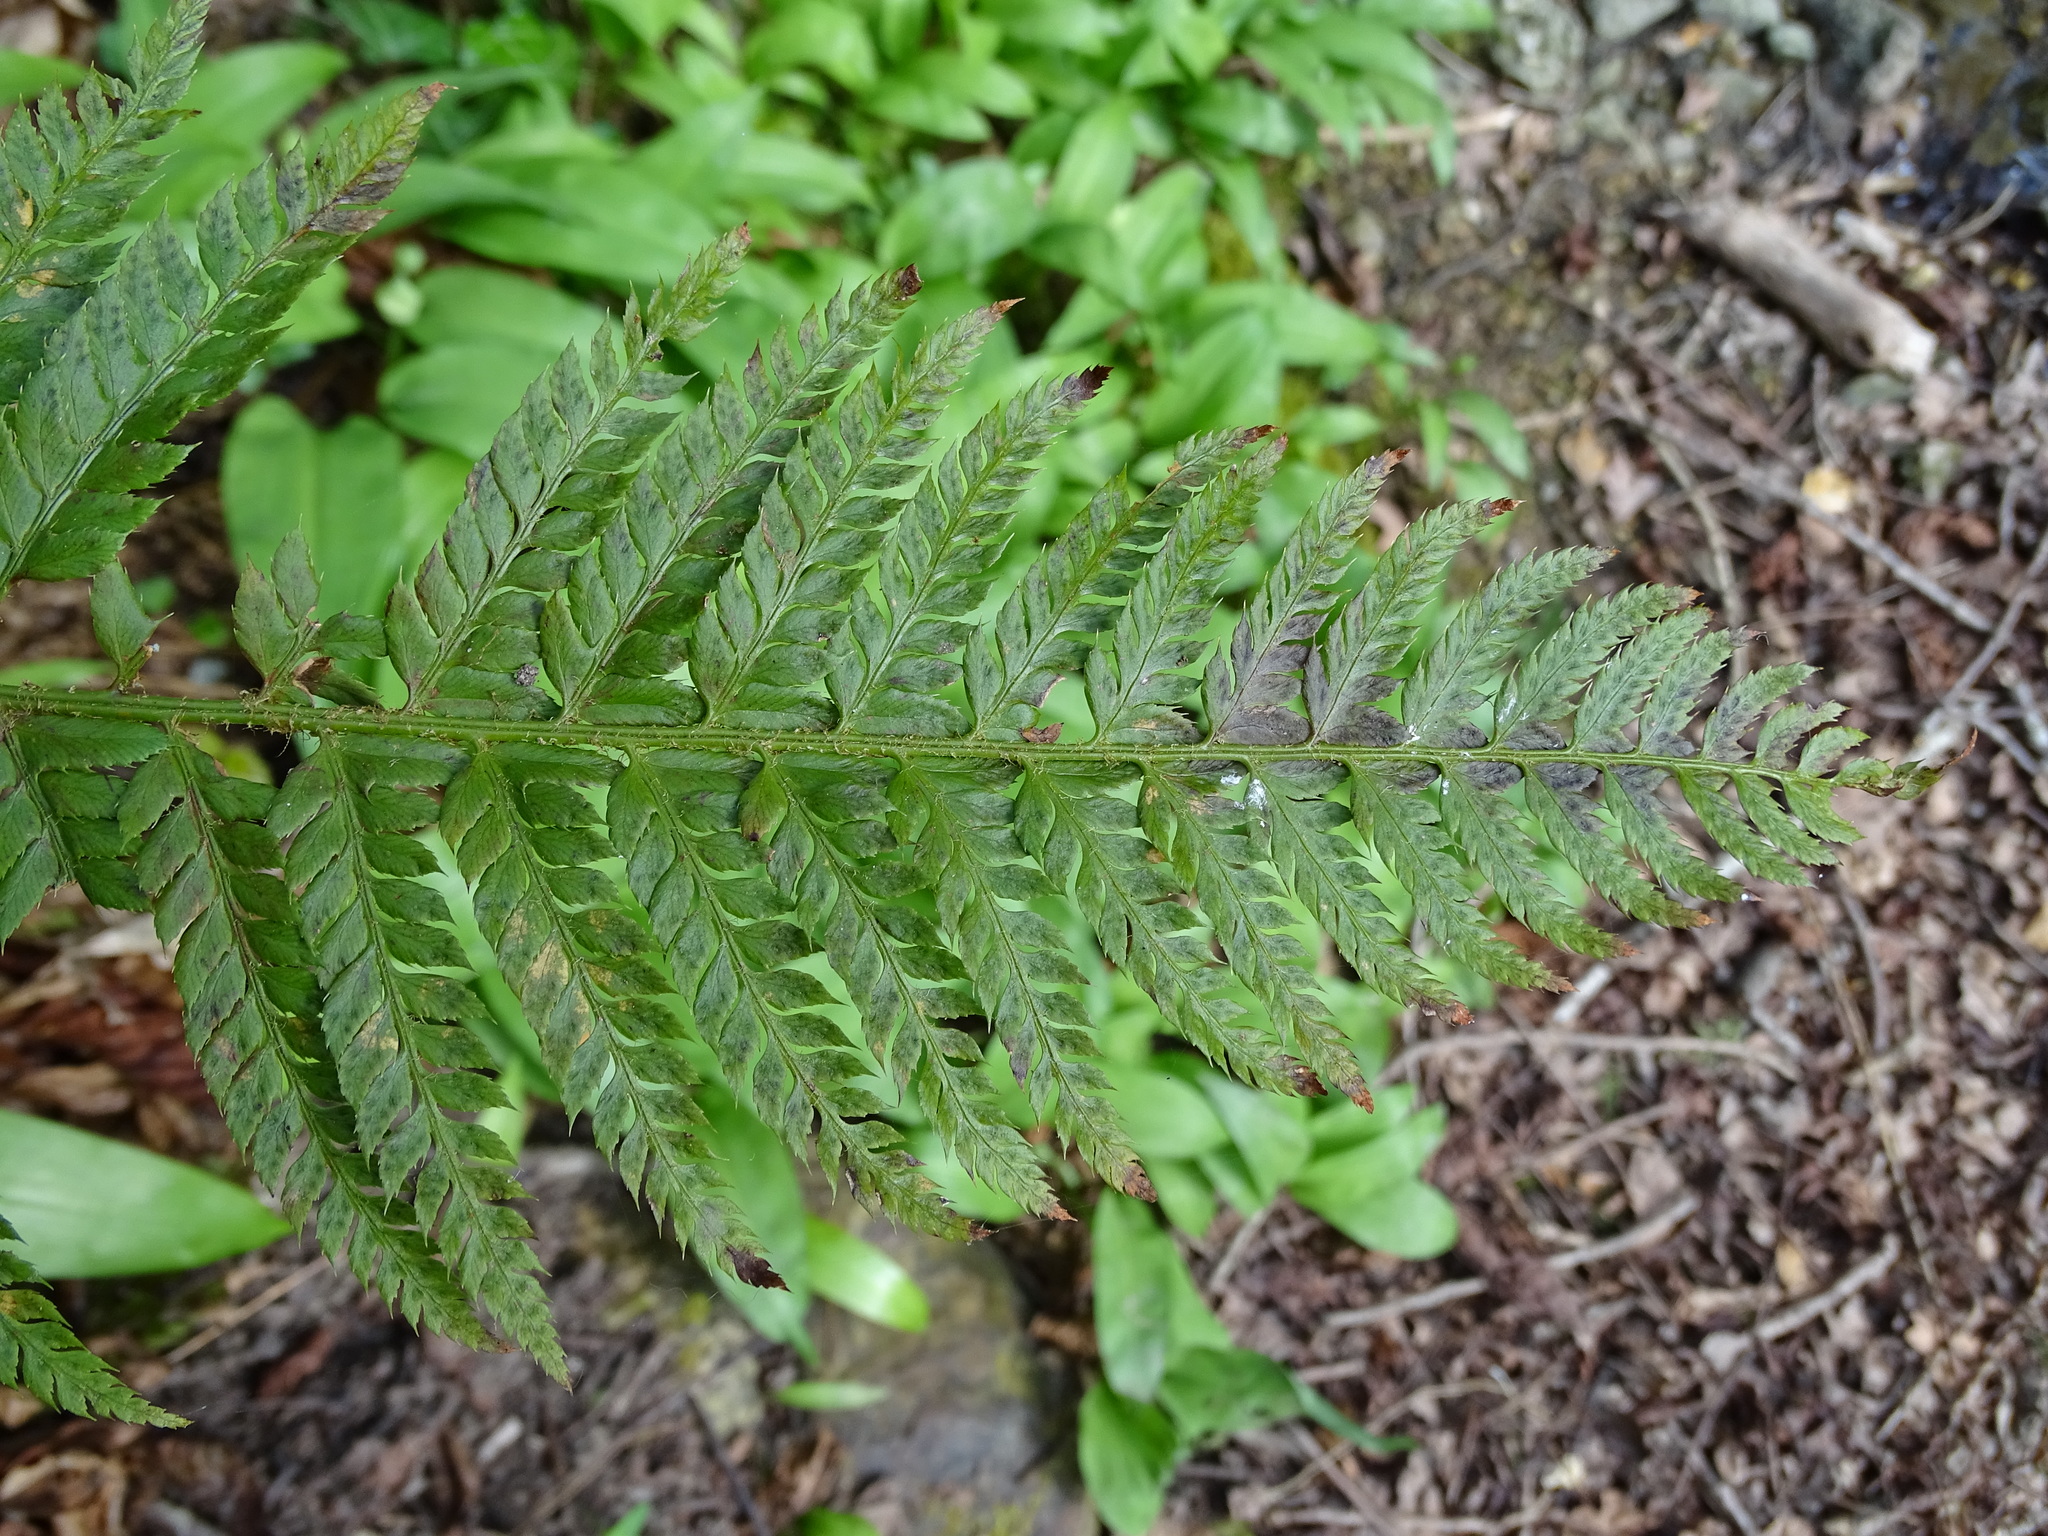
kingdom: Plantae
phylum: Tracheophyta
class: Polypodiopsida
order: Polypodiales
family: Dryopteridaceae
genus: Polystichum
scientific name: Polystichum aculeatum
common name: Hard shield-fern
